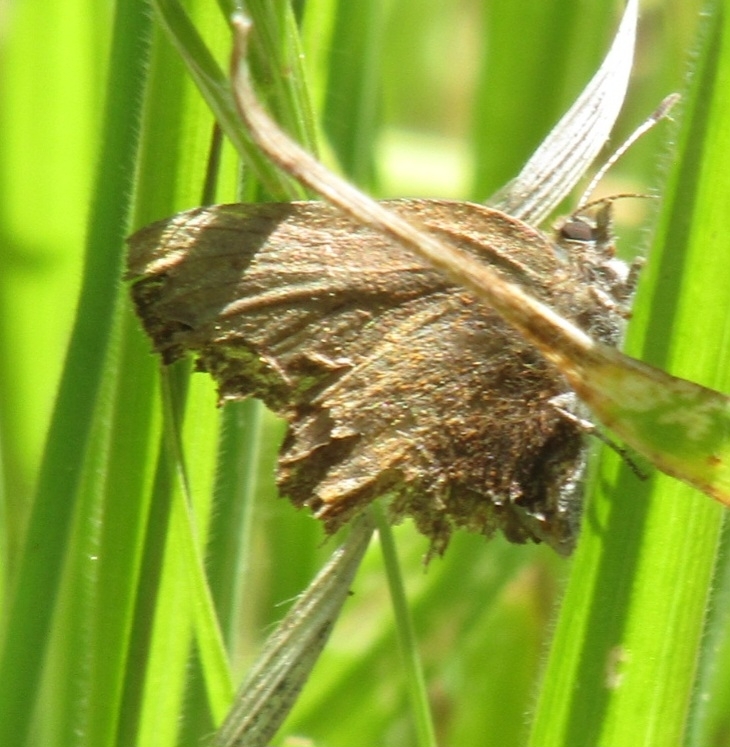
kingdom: Animalia
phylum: Arthropoda
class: Insecta
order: Lepidoptera
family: Lycaenidae
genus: Incisalia
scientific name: Incisalia irioides
